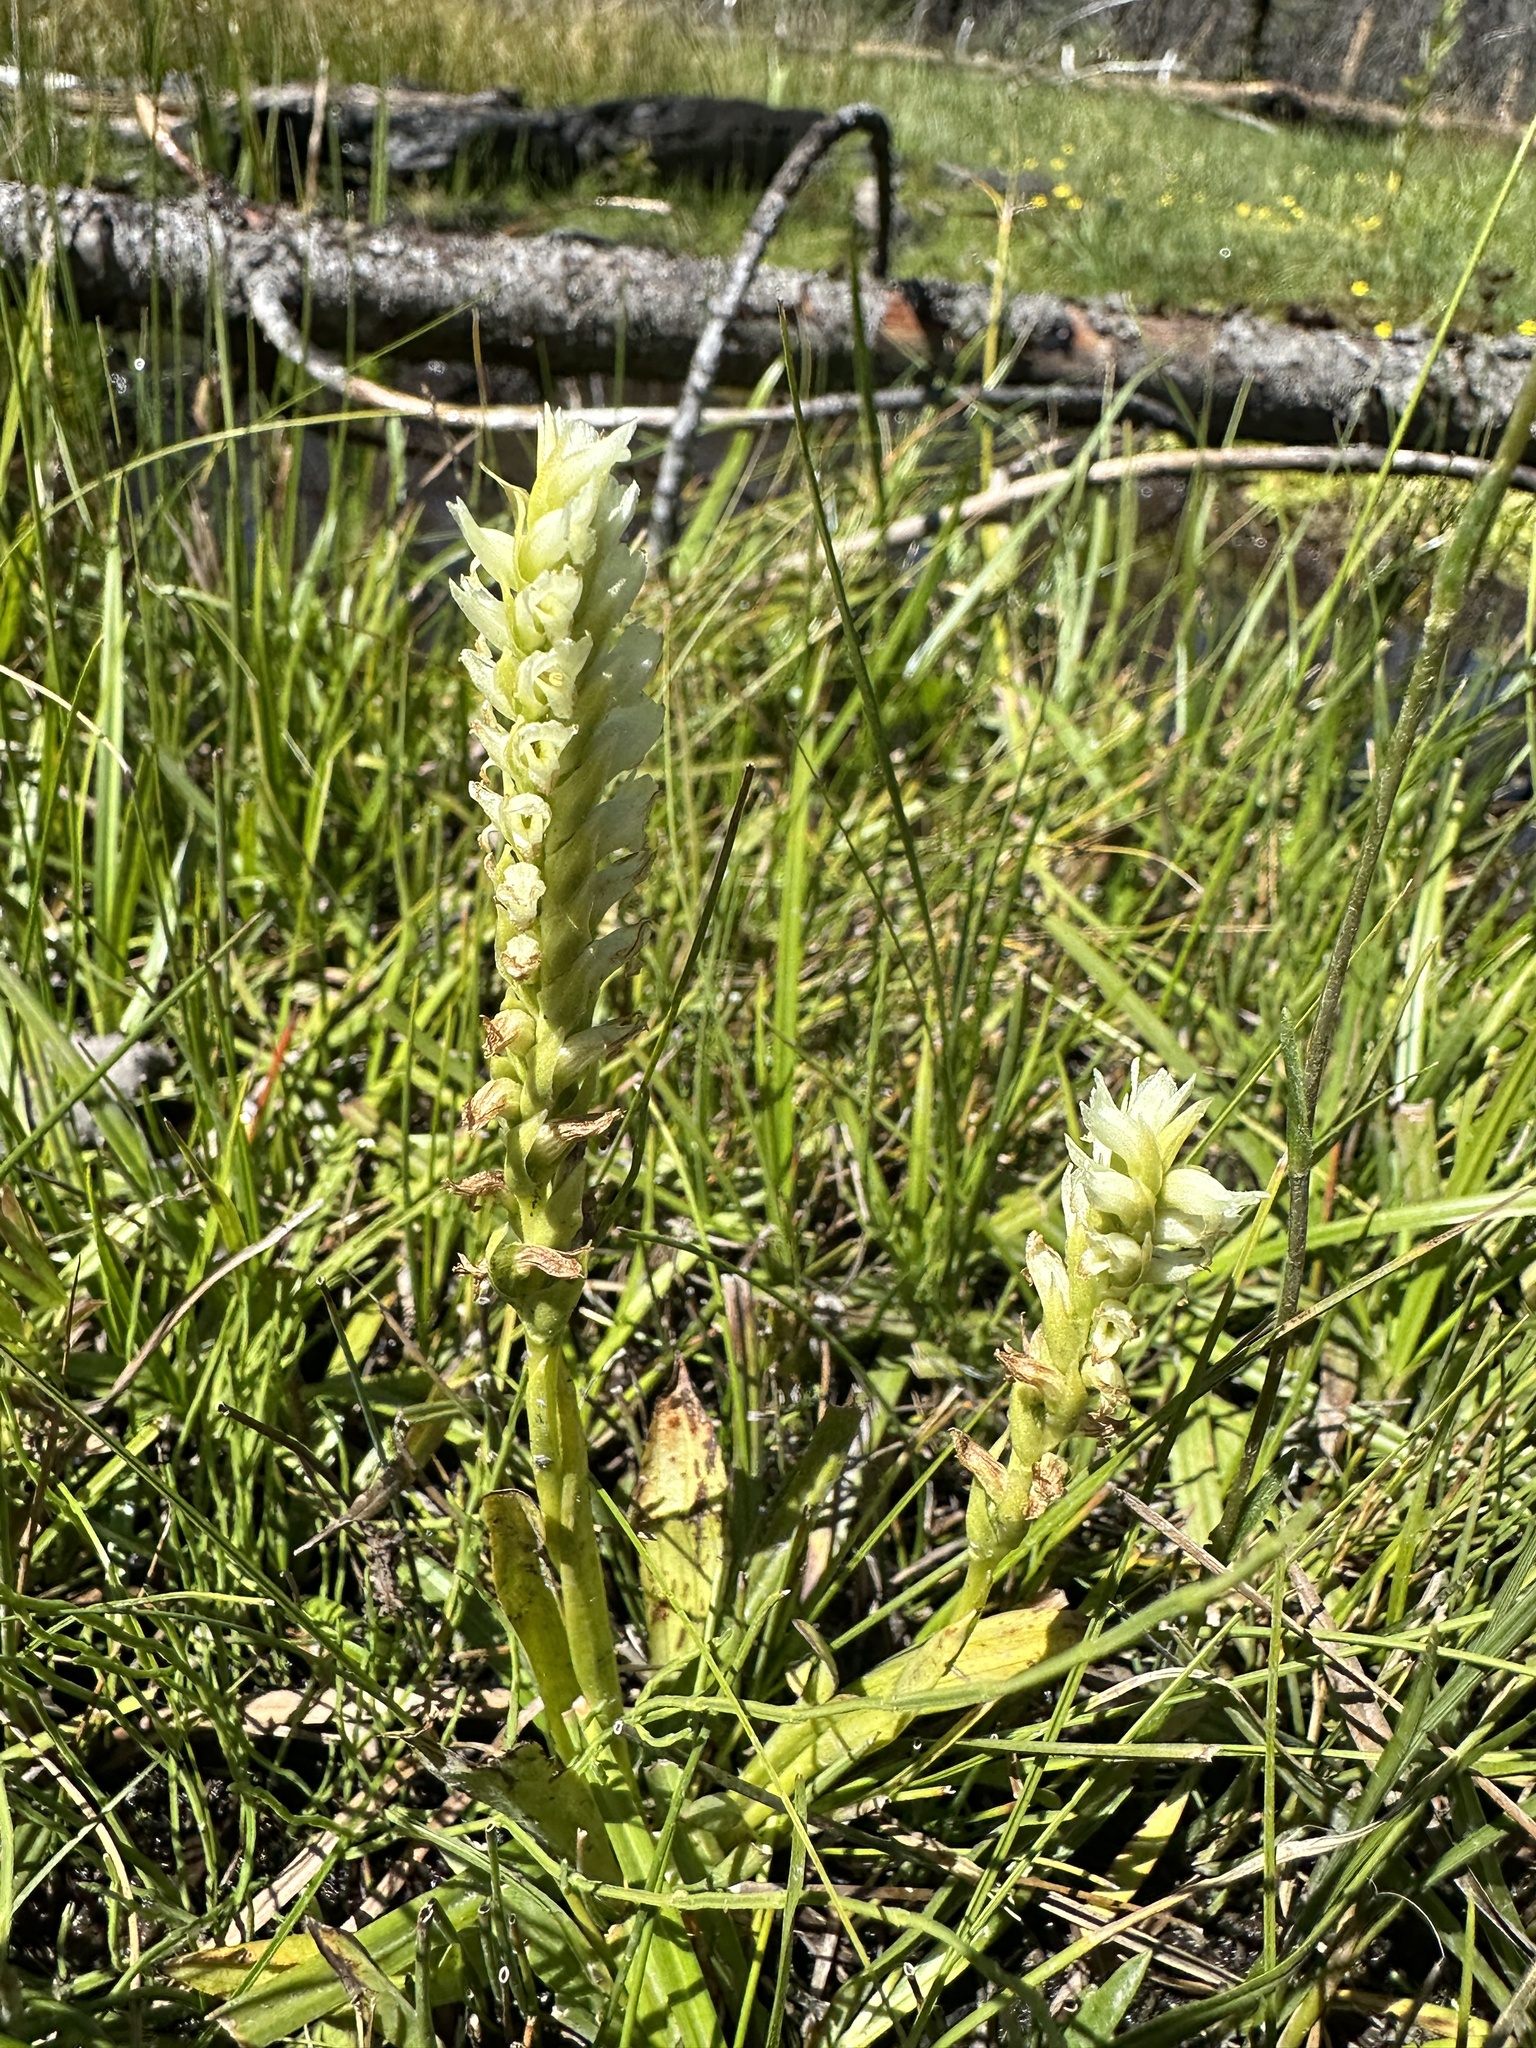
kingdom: Plantae
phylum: Tracheophyta
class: Liliopsida
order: Asparagales
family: Orchidaceae
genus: Spiranthes
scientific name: Spiranthes romanzoffiana
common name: Irish lady's-tresses
